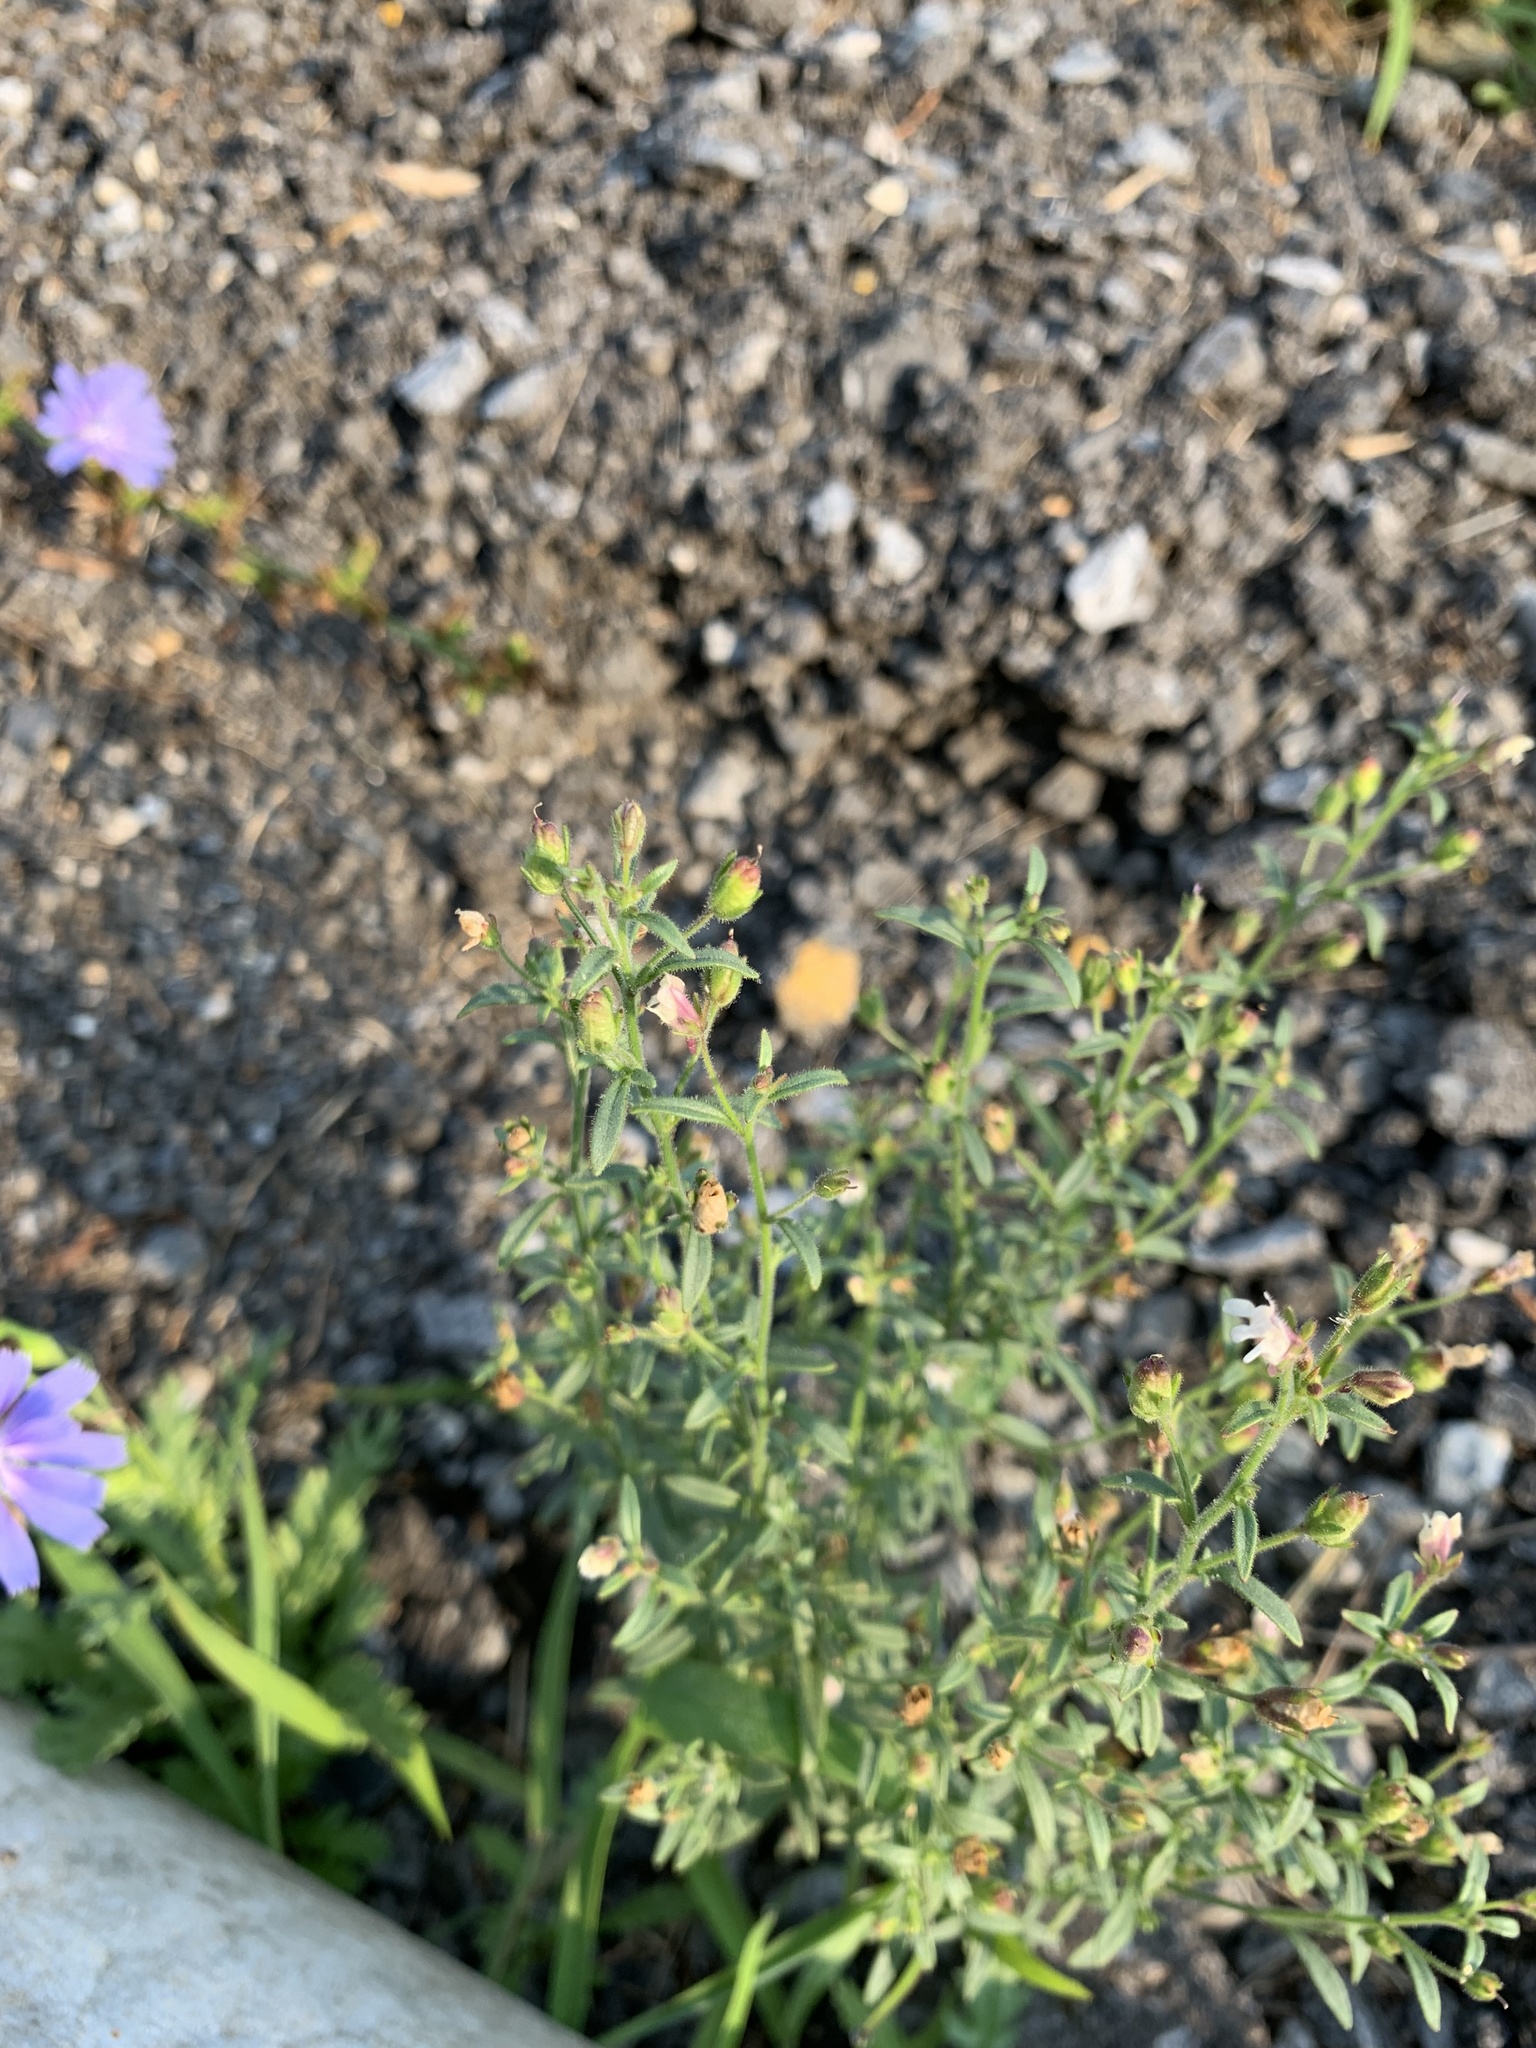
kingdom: Plantae
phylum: Tracheophyta
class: Magnoliopsida
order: Lamiales
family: Plantaginaceae
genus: Chaenorhinum
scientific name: Chaenorhinum minus
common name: Dwarf snapdragon
